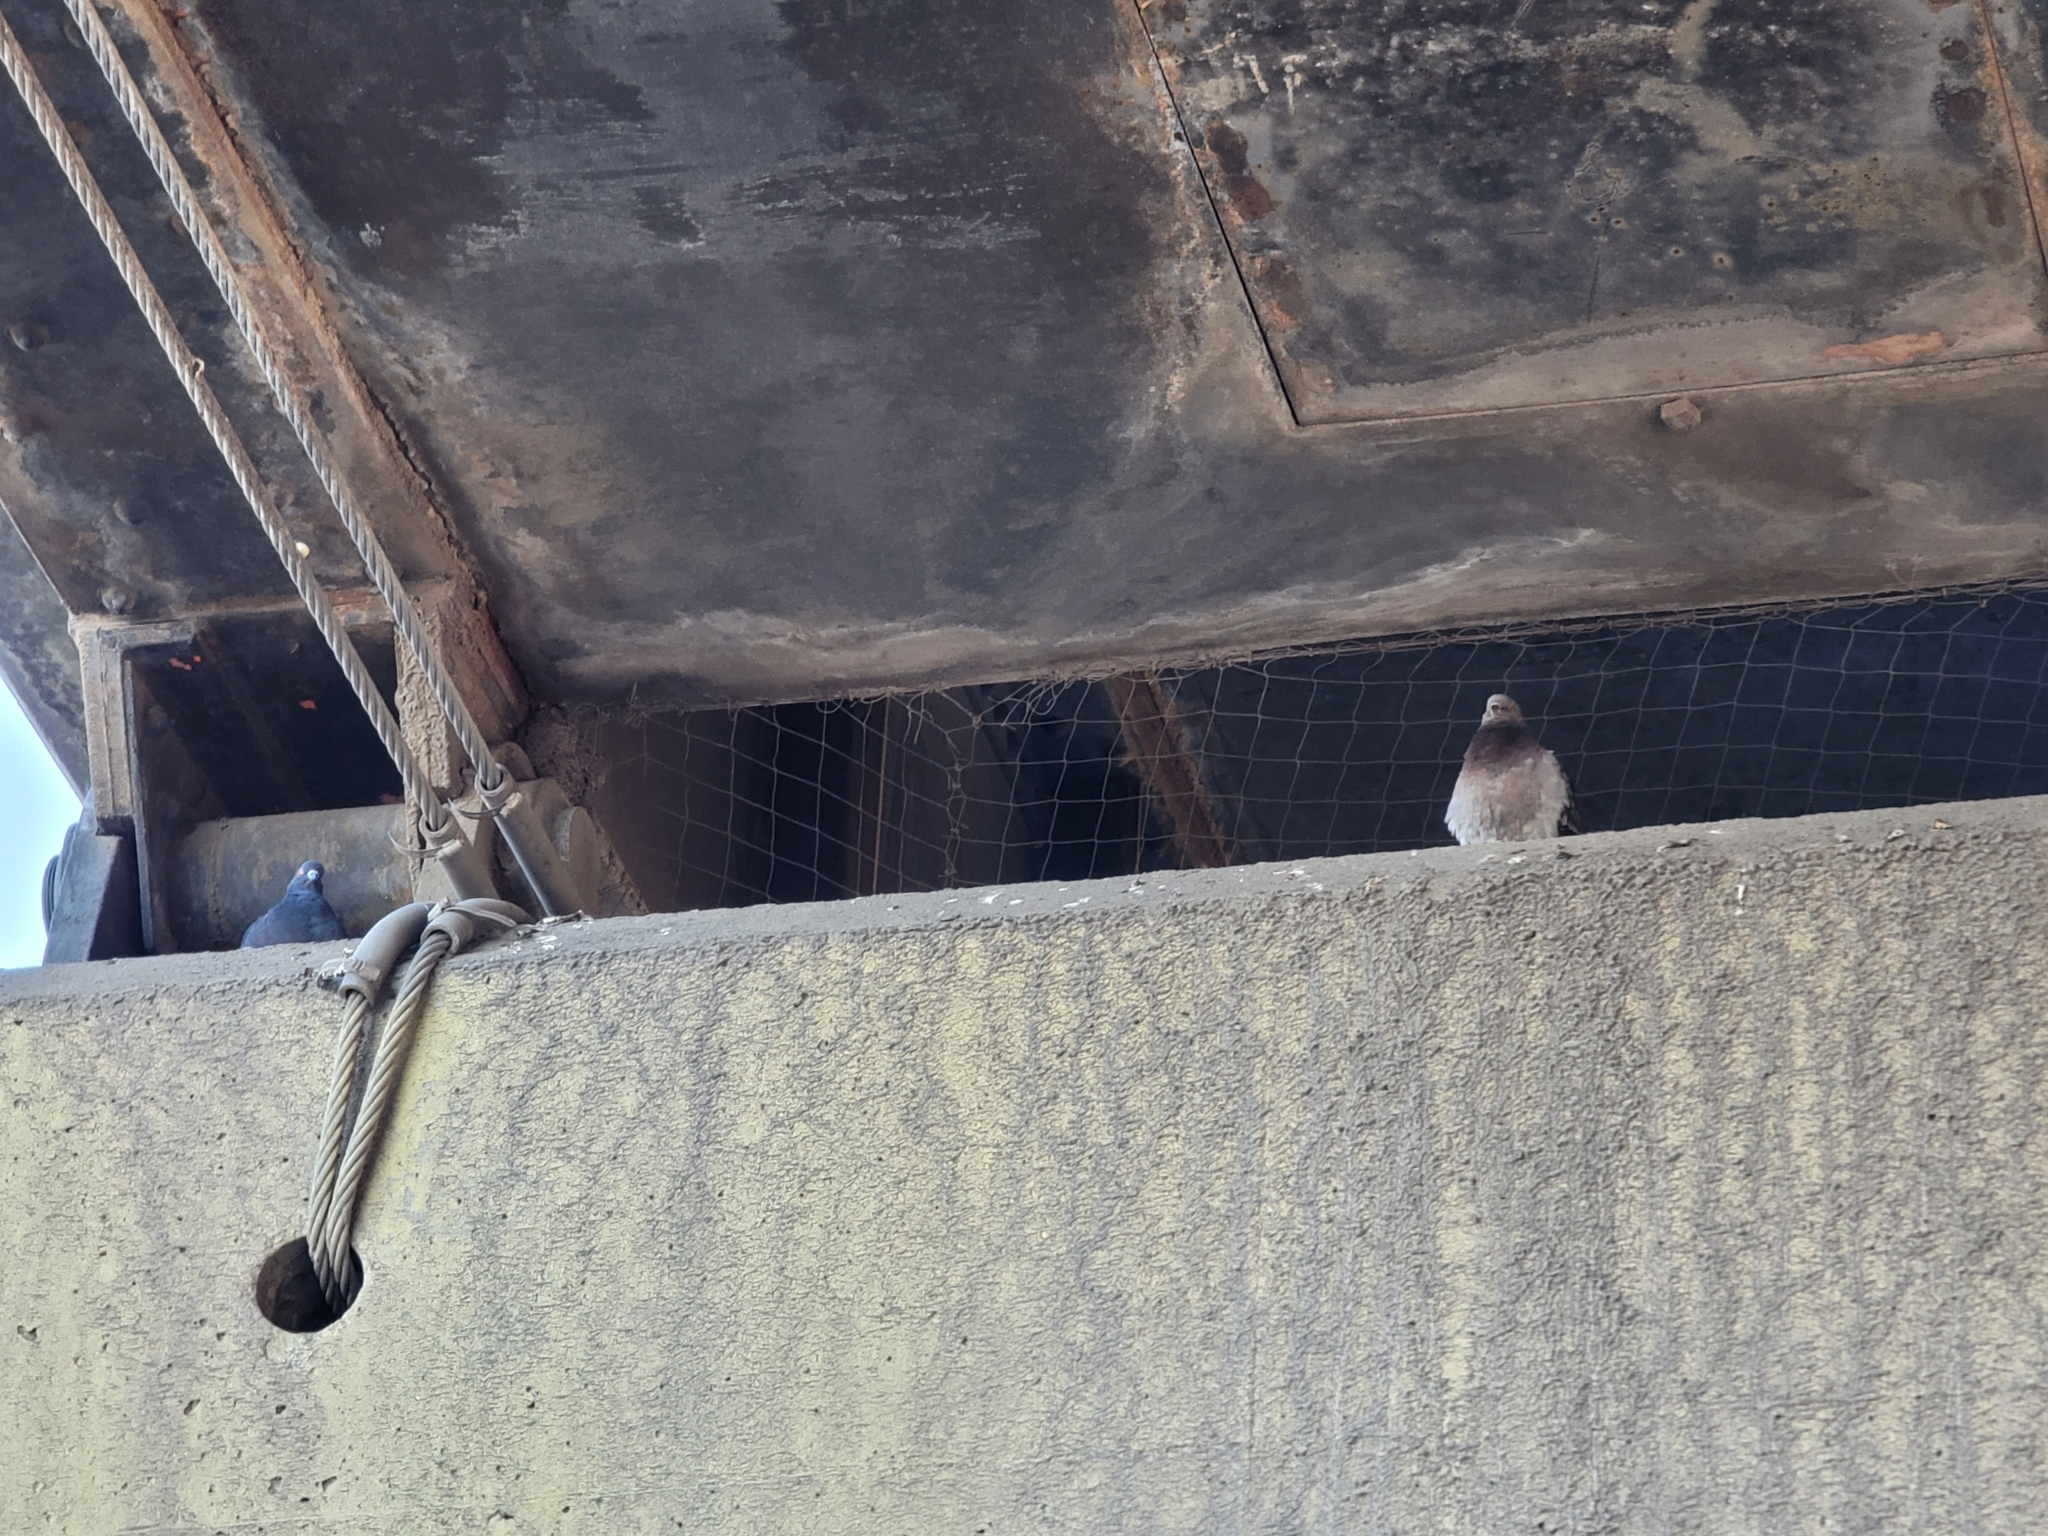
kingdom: Animalia
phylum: Chordata
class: Aves
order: Columbiformes
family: Columbidae
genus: Columba
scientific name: Columba livia
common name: Rock pigeon
